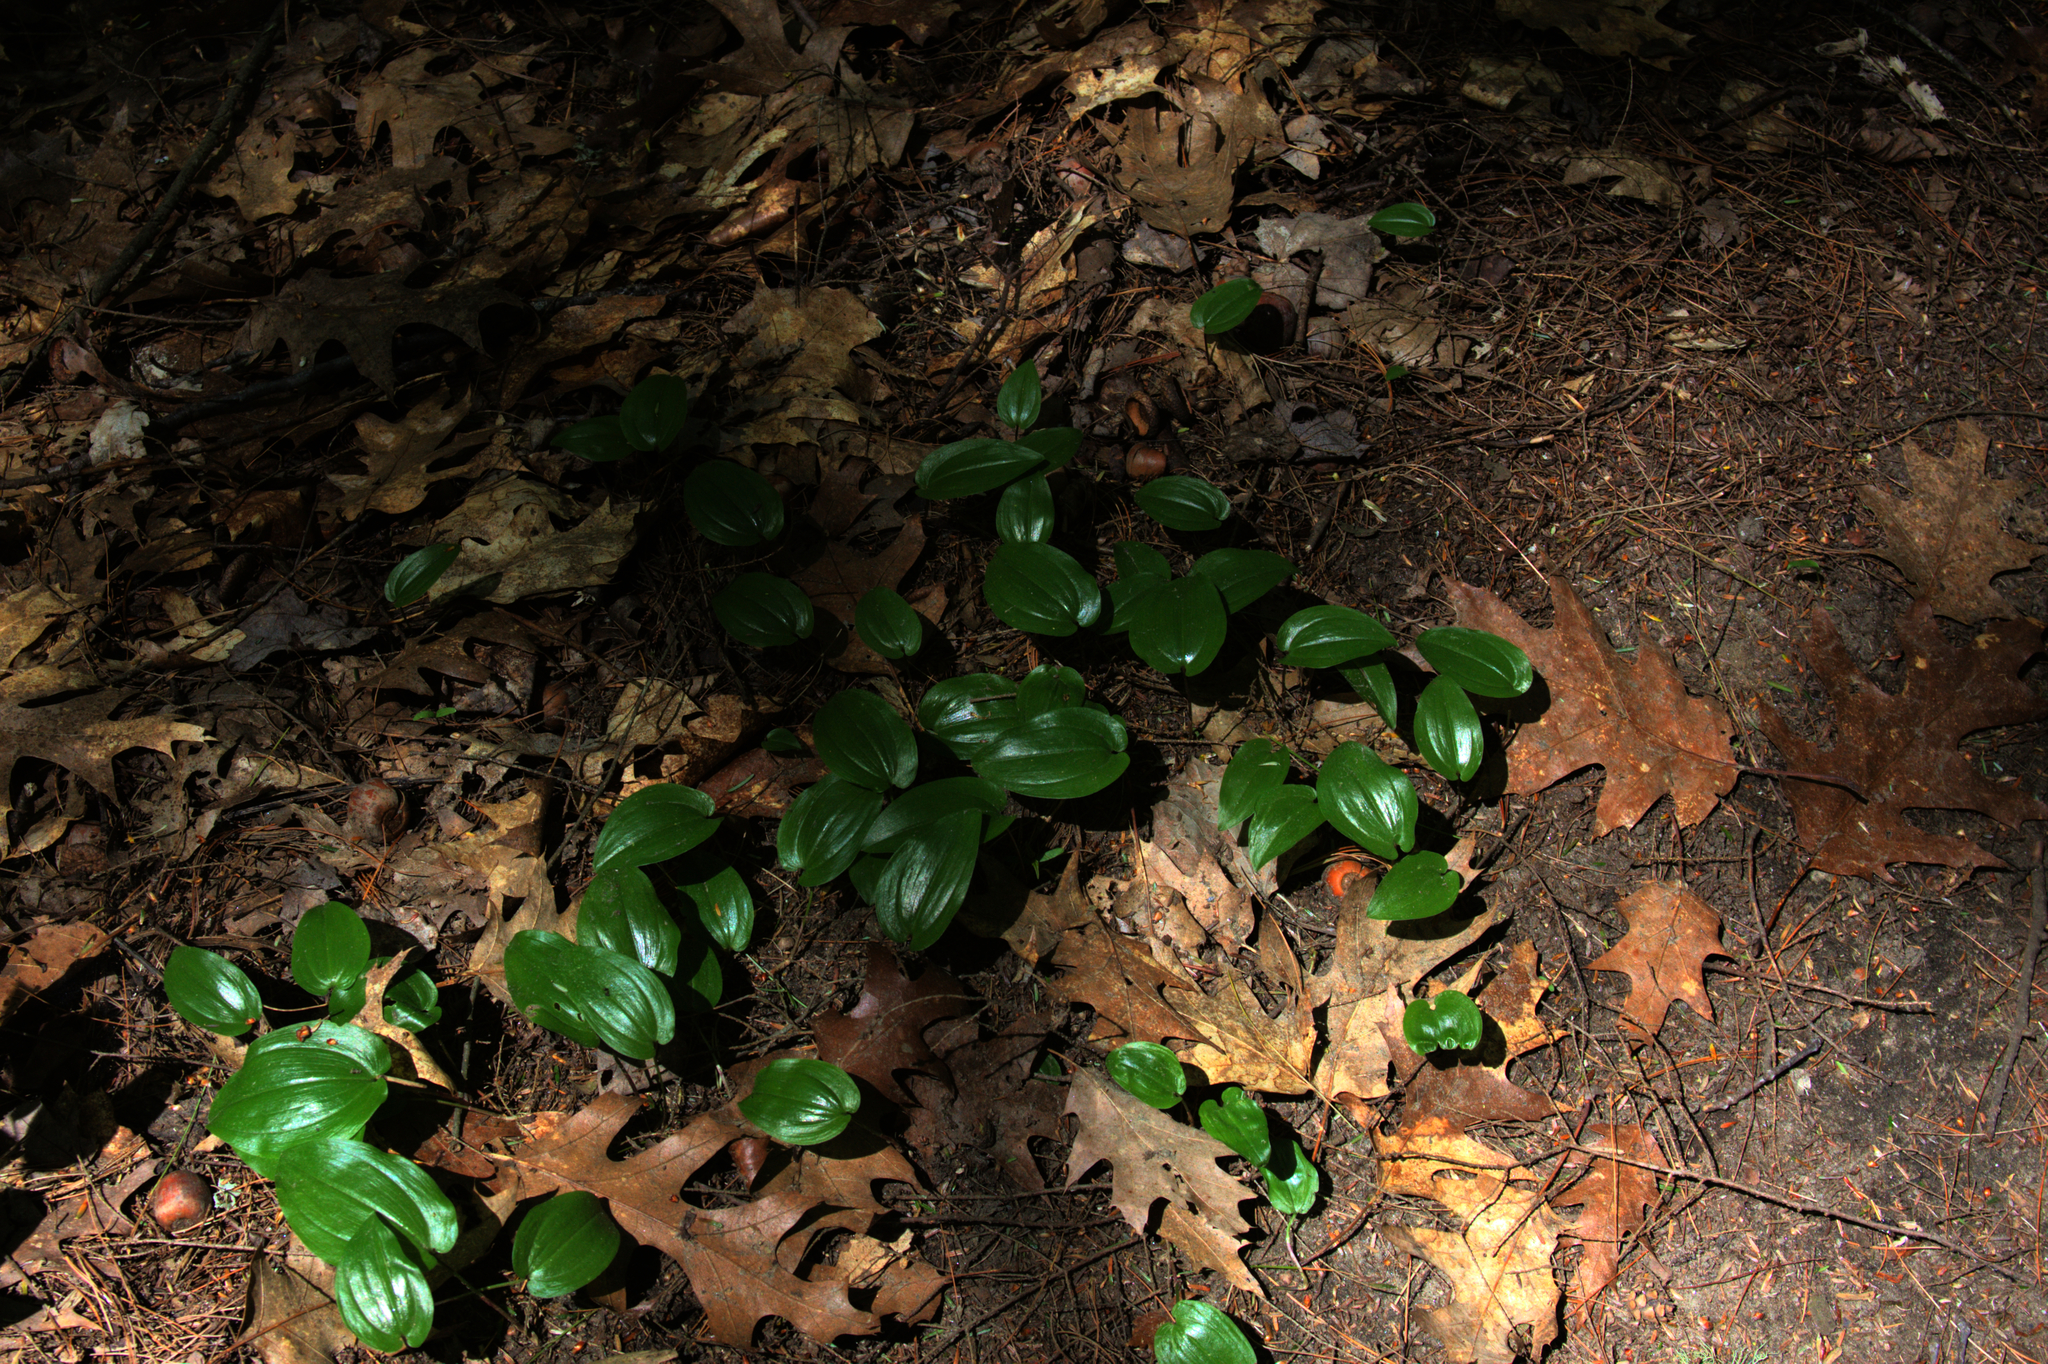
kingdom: Plantae
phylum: Tracheophyta
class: Liliopsida
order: Asparagales
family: Asparagaceae
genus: Maianthemum
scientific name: Maianthemum canadense
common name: False lily-of-the-valley
